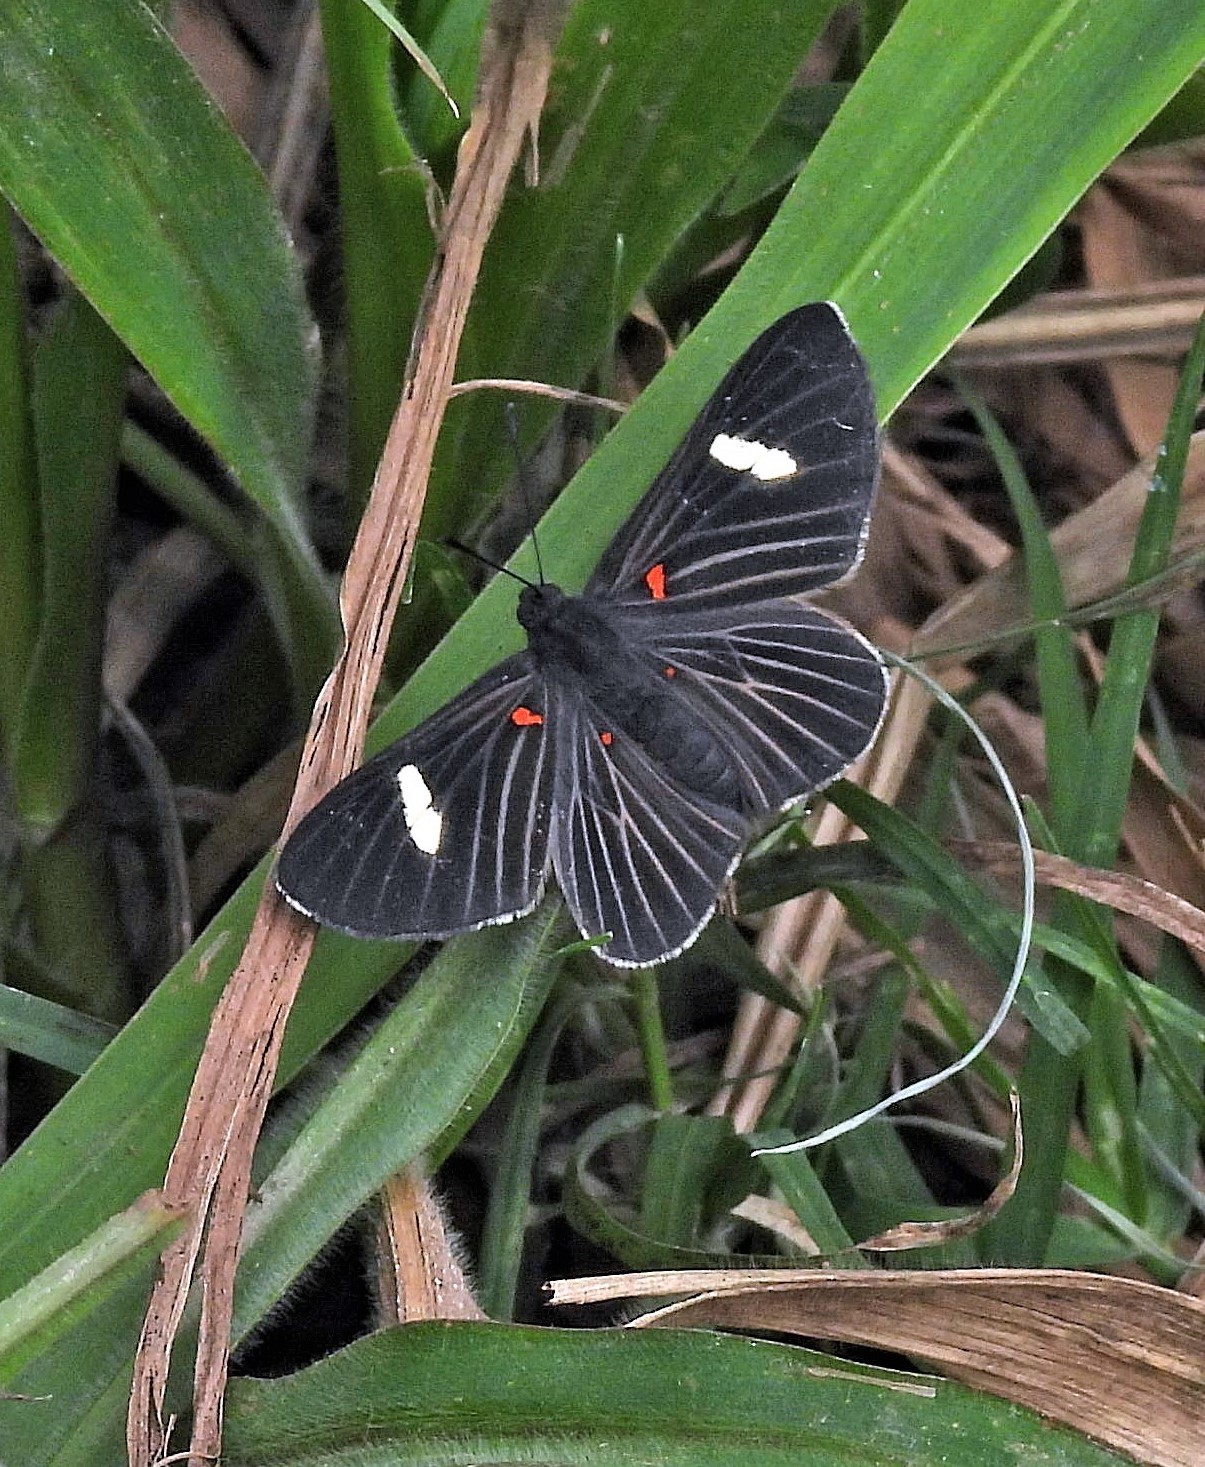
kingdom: Animalia
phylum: Arthropoda
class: Insecta
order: Lepidoptera
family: Lycaenidae
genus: Melanis
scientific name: Melanis aegates
